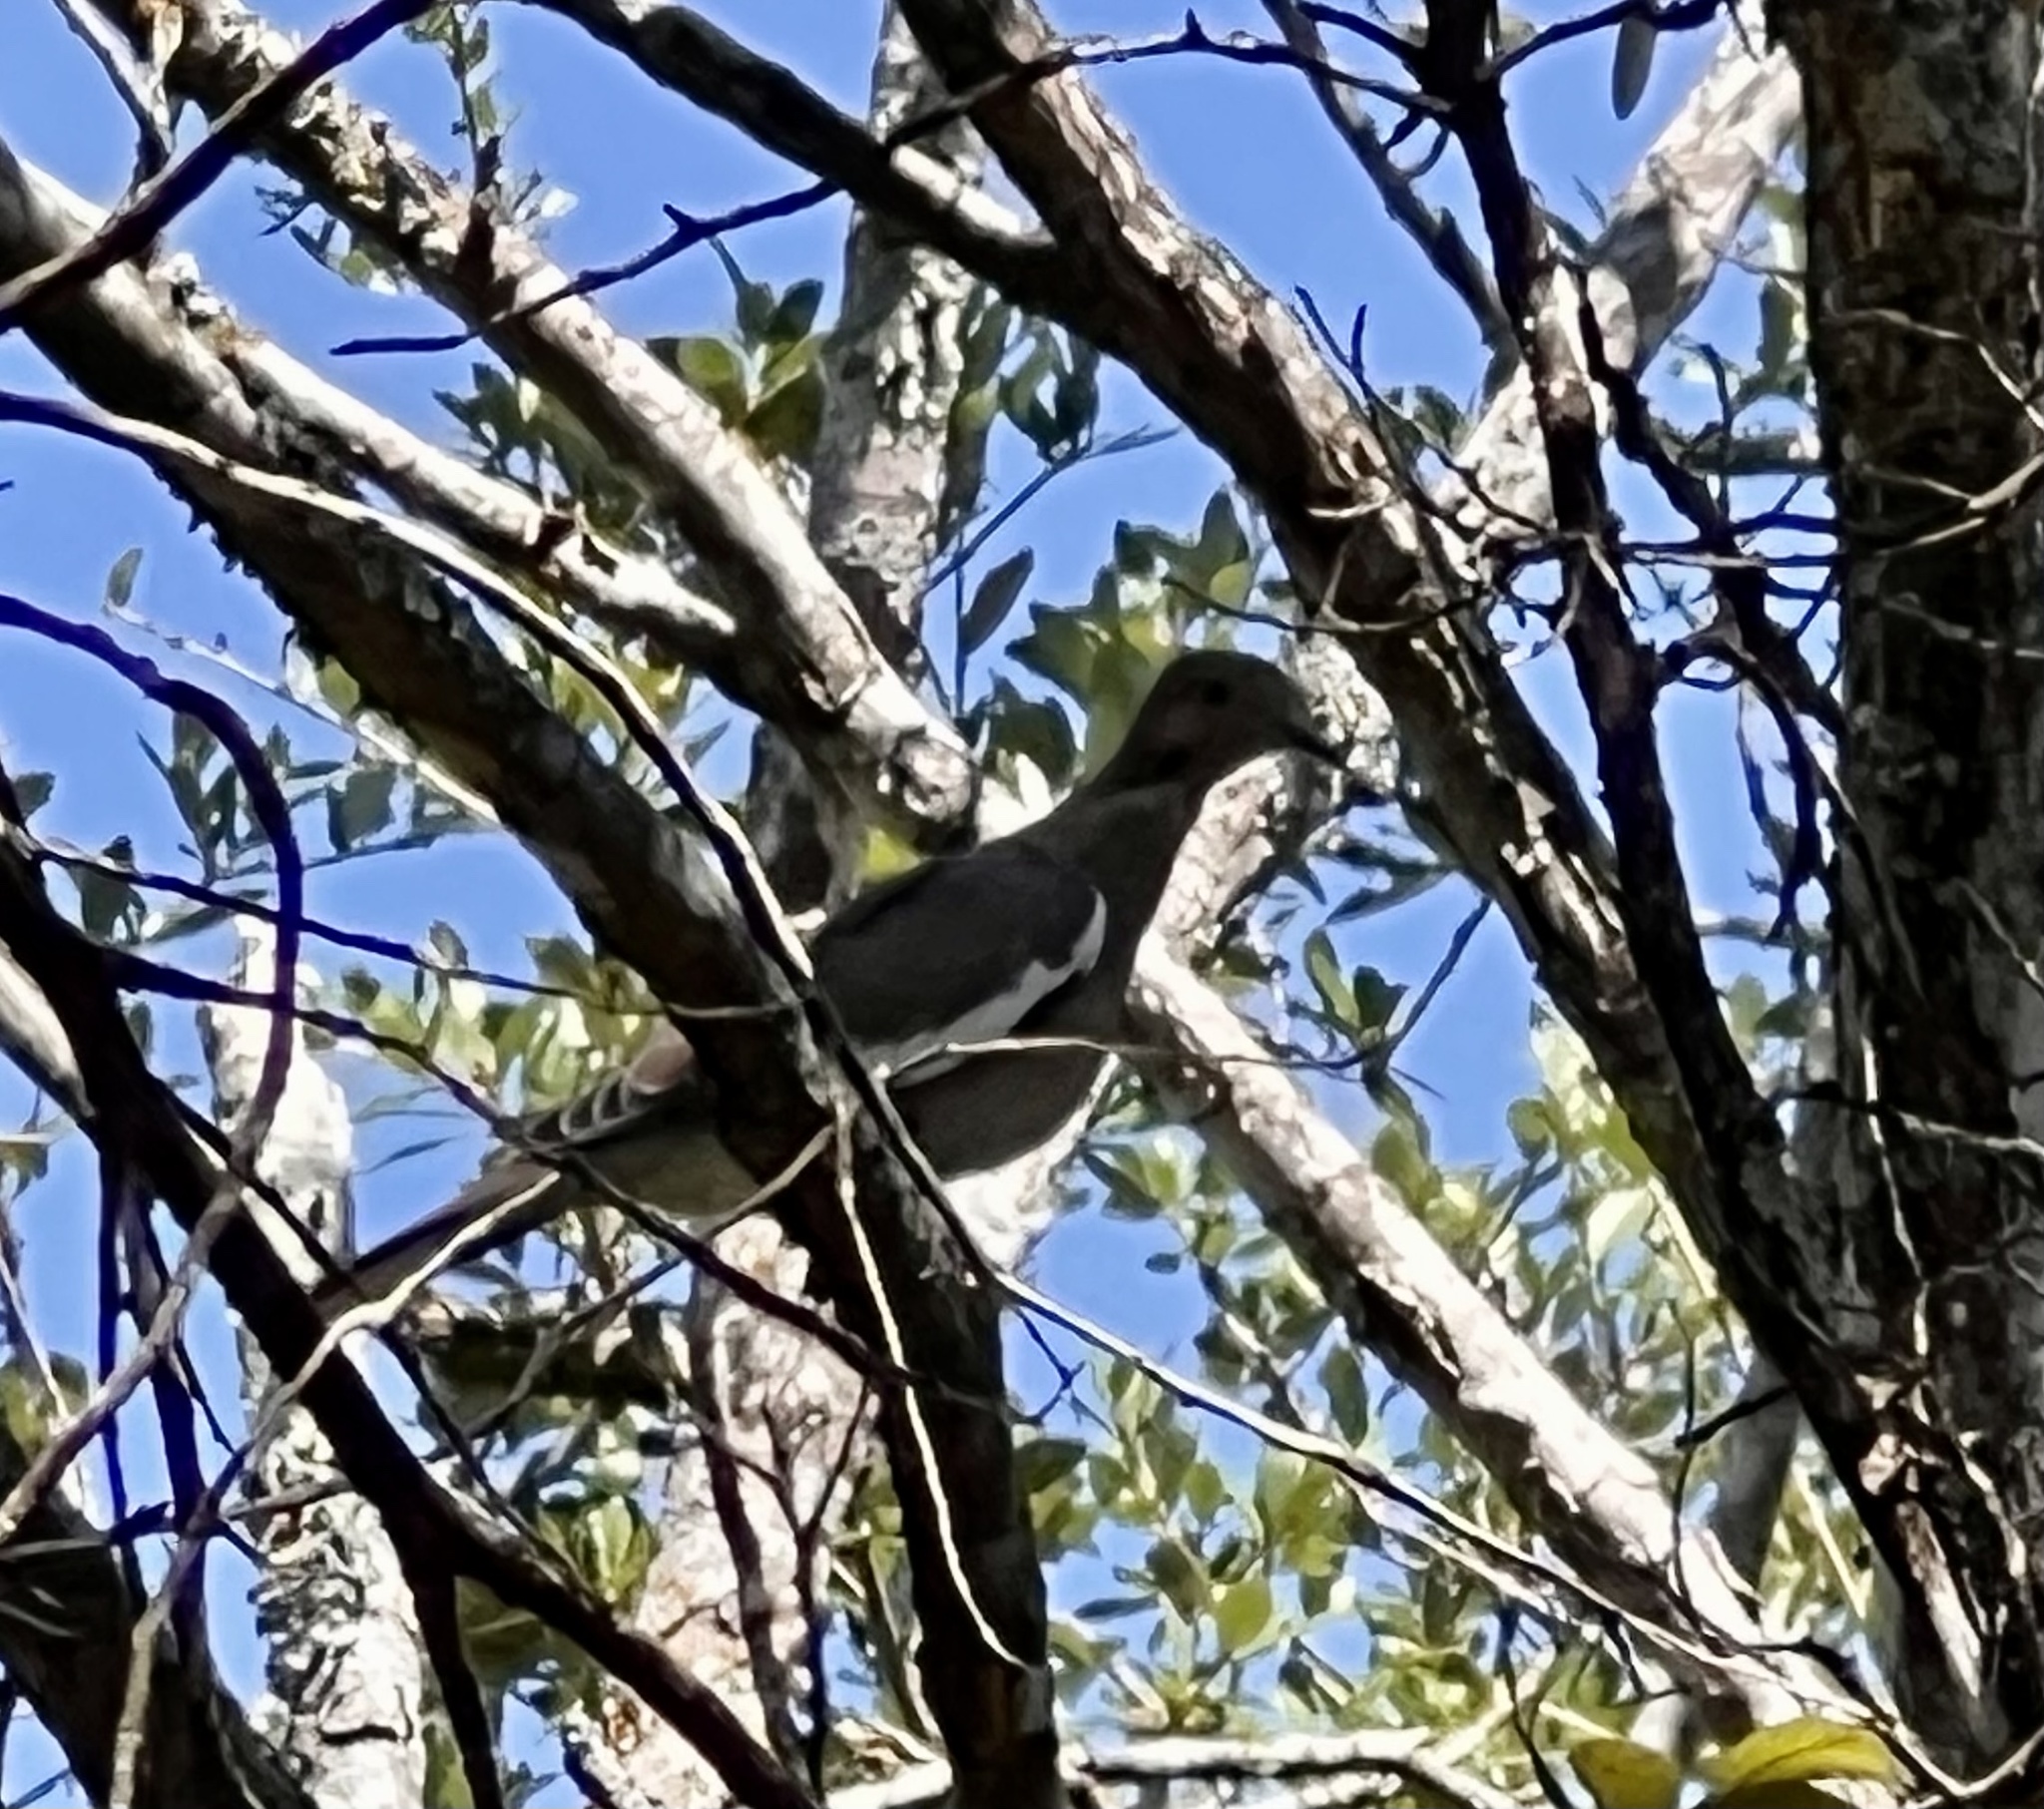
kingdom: Animalia
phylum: Chordata
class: Aves
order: Columbiformes
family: Columbidae
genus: Zenaida
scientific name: Zenaida asiatica
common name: White-winged dove
